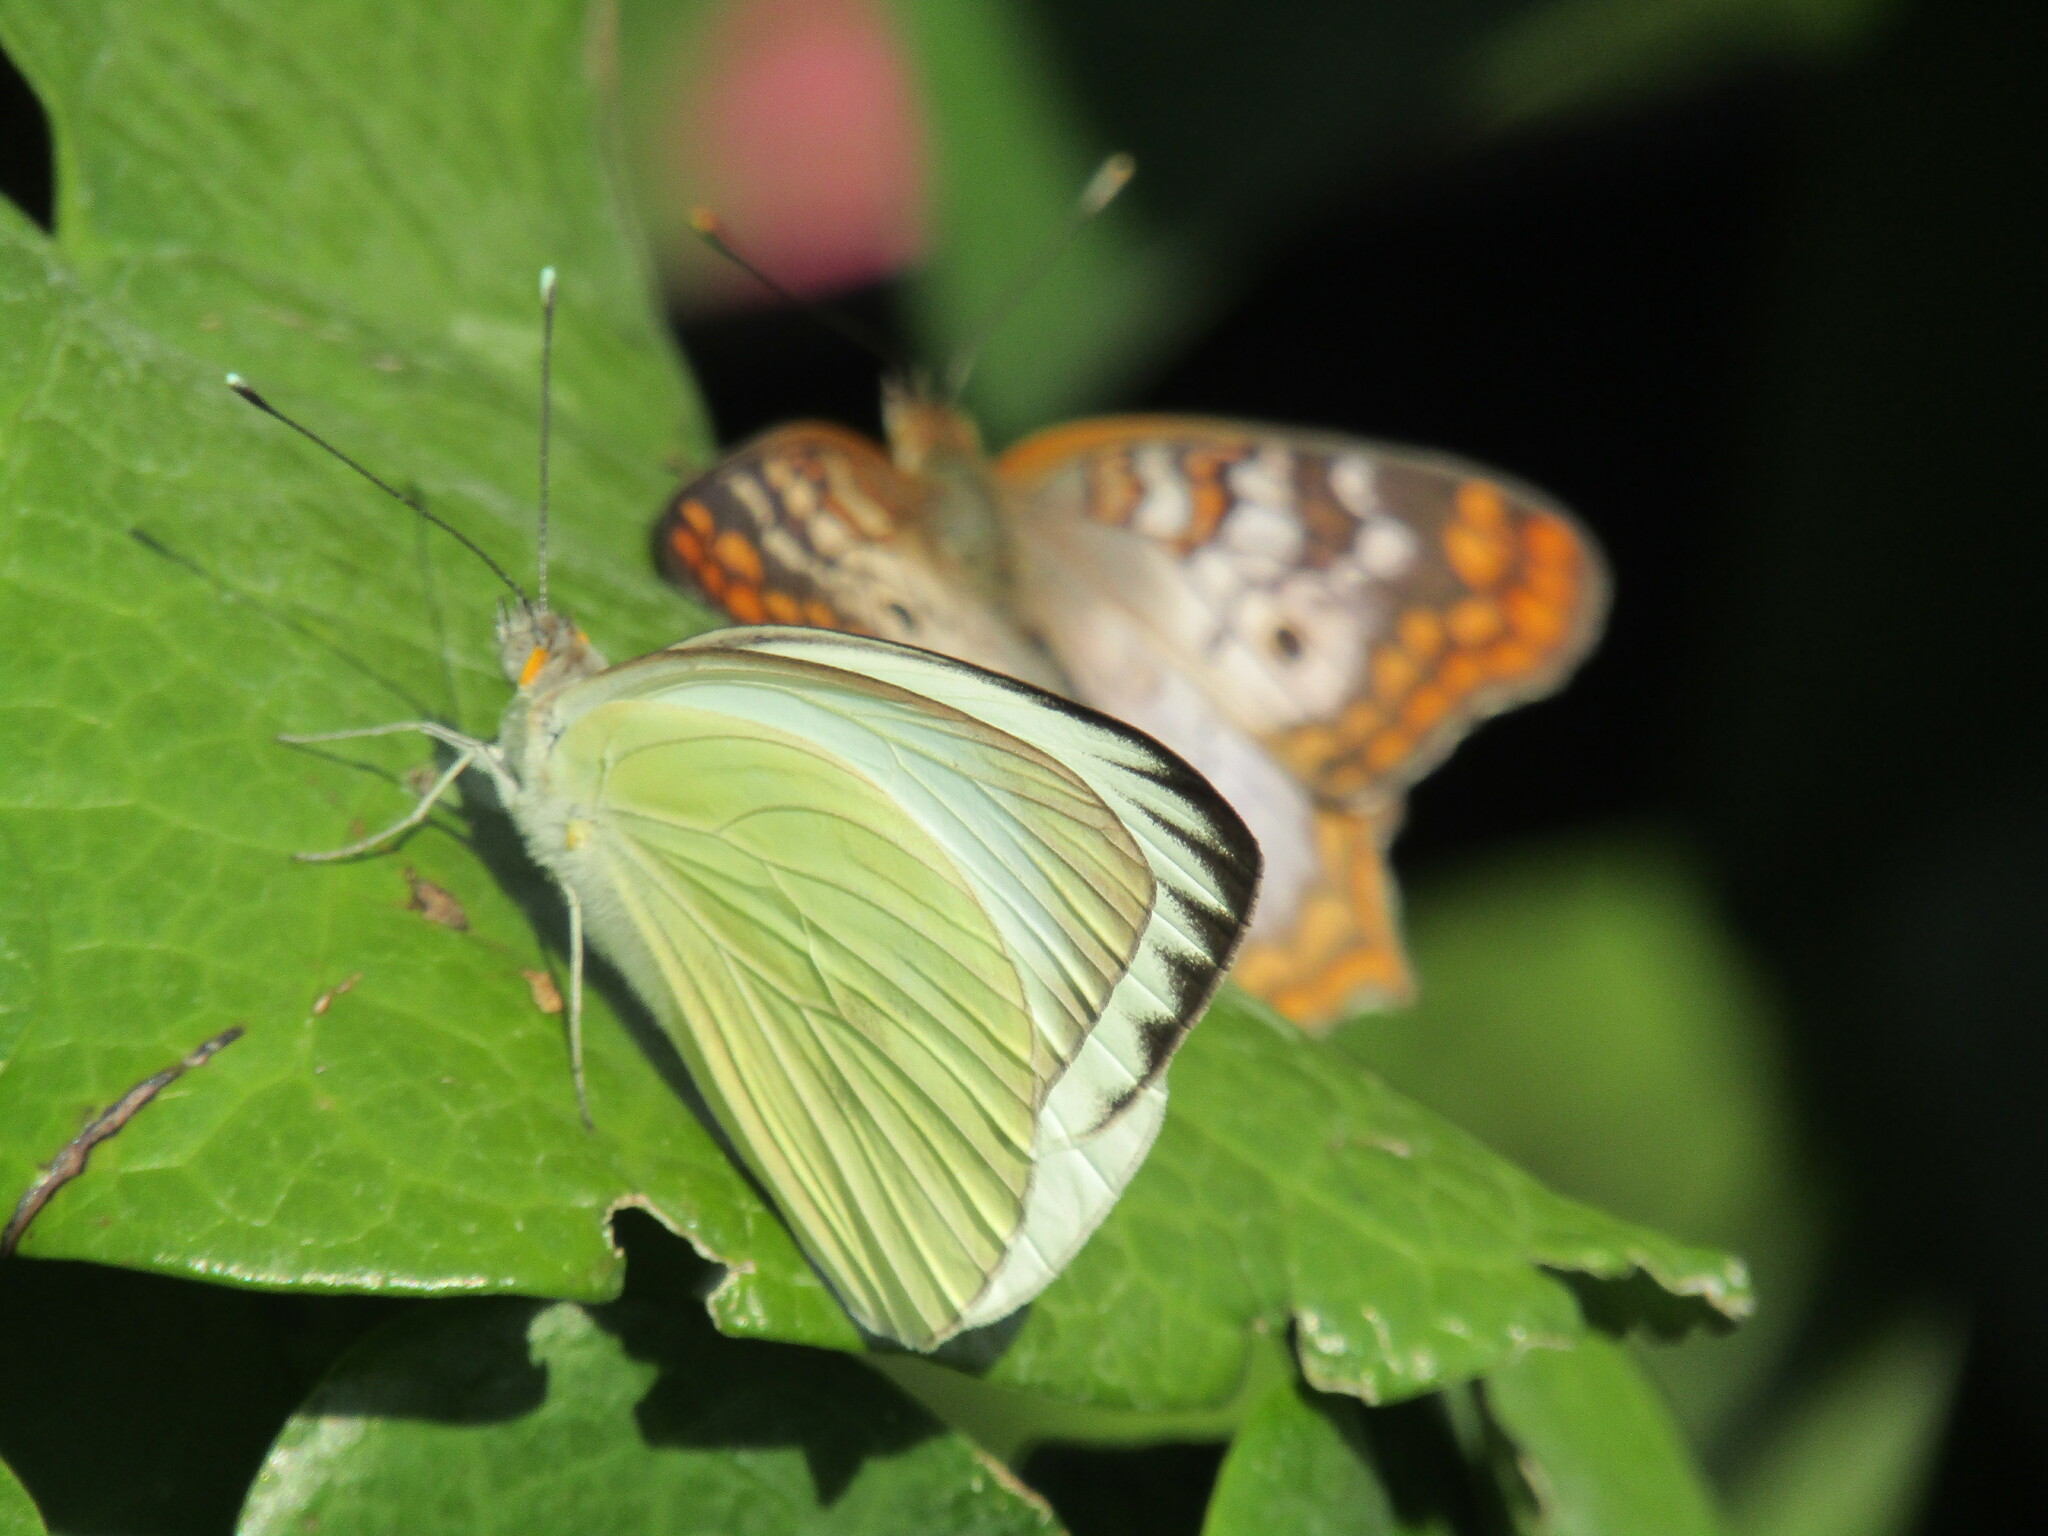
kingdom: Animalia
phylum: Arthropoda
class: Insecta
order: Lepidoptera
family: Pieridae
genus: Ascia
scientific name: Ascia monuste
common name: Great southern white
